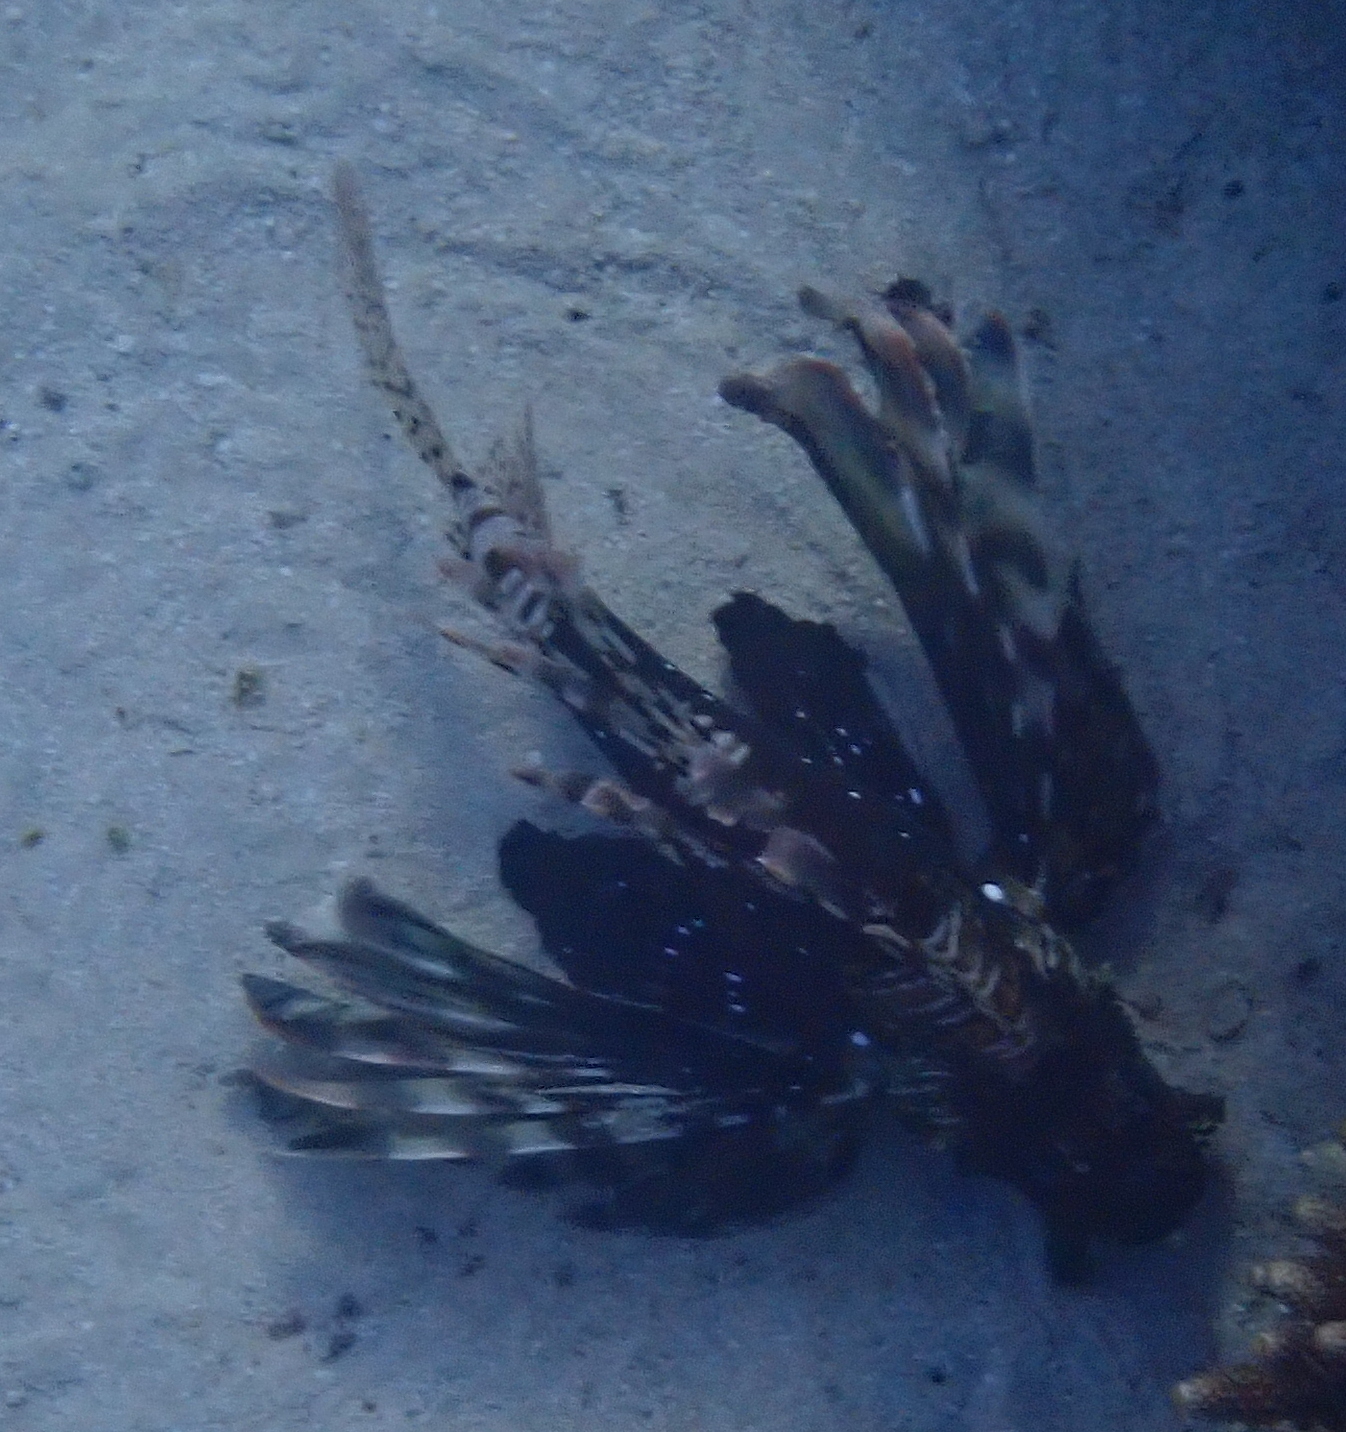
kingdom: Animalia
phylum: Chordata
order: Scorpaeniformes
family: Scorpaenidae
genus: Pterois
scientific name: Pterois miles
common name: Devil firefish
